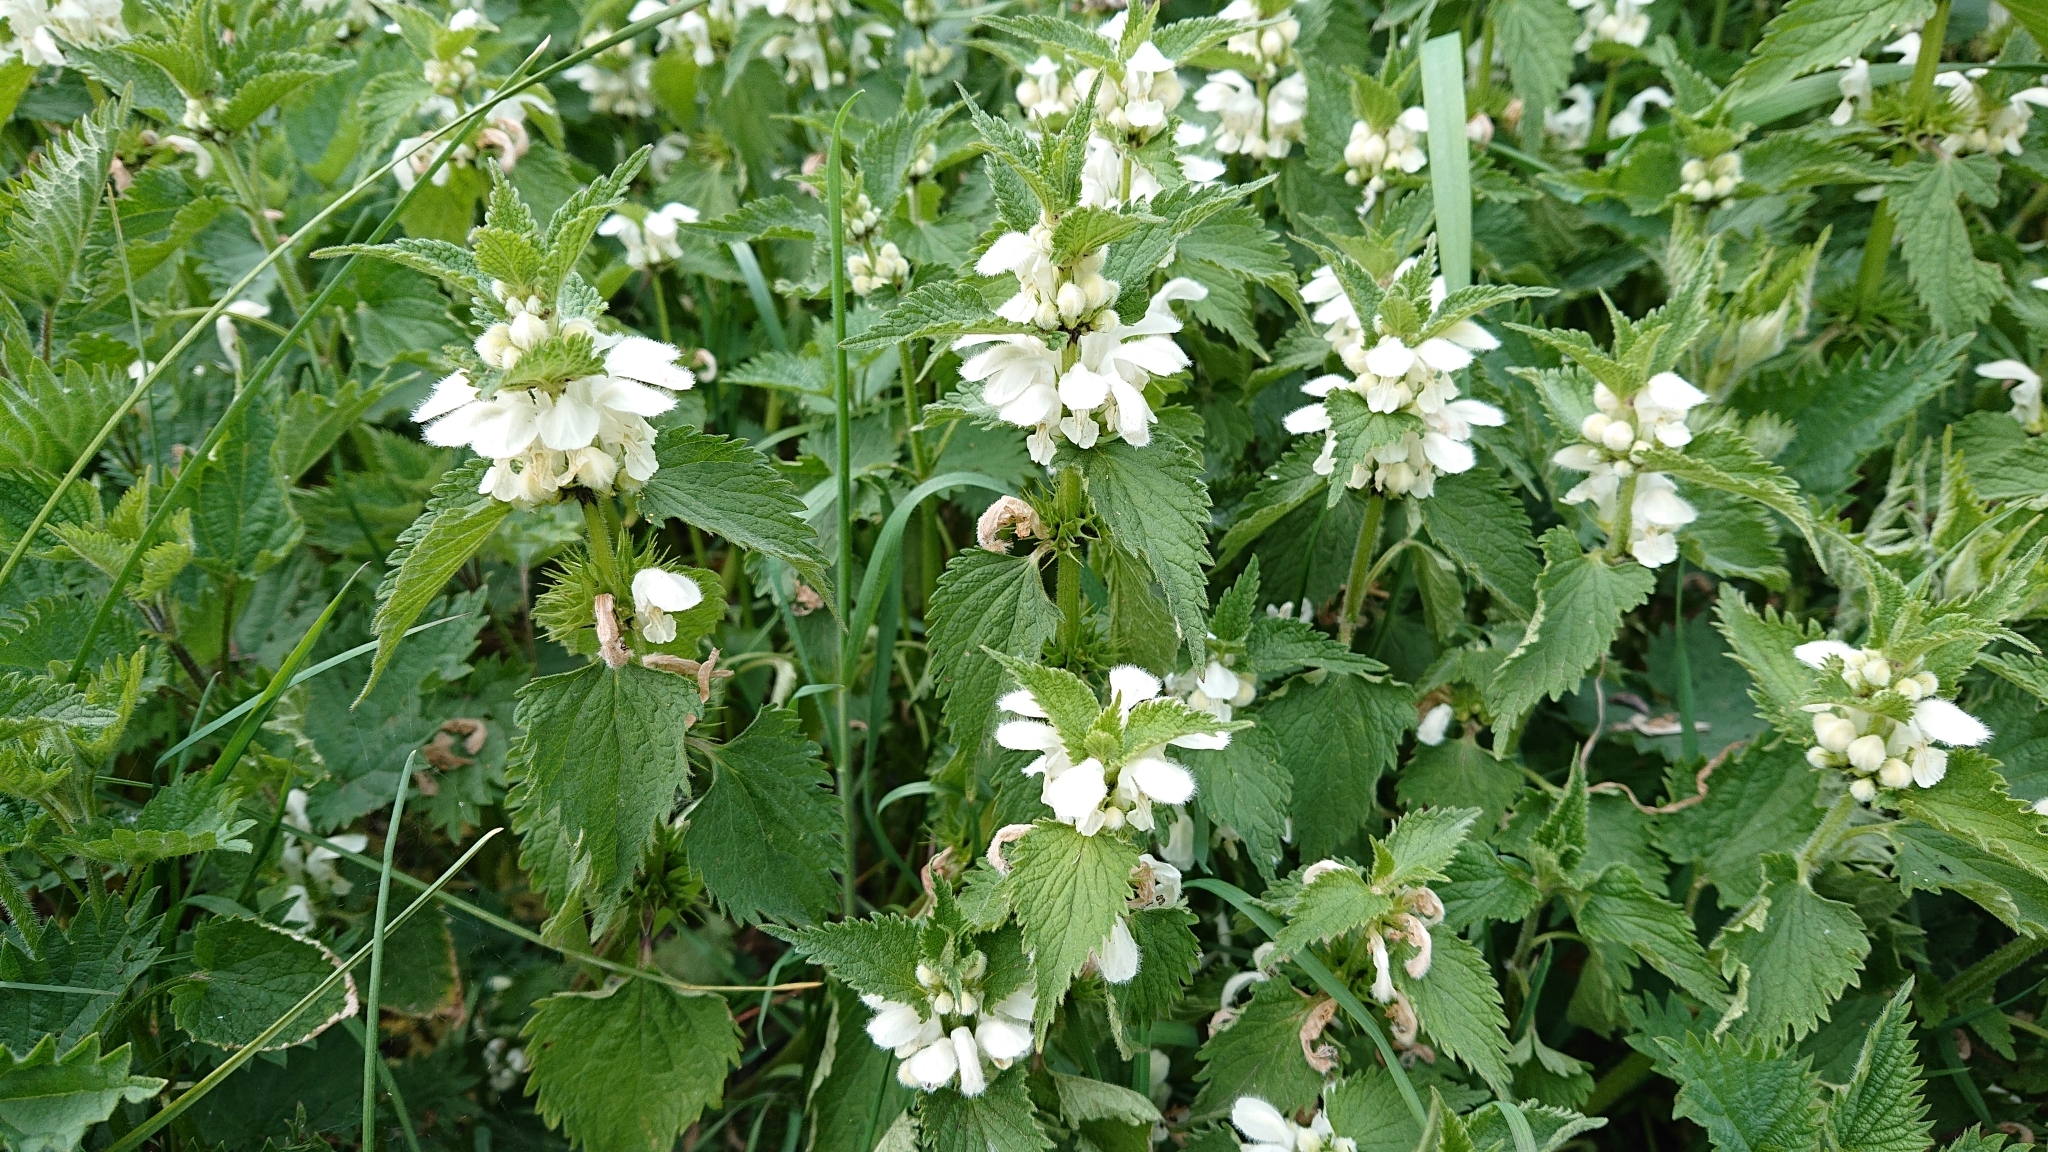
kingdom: Plantae
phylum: Tracheophyta
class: Magnoliopsida
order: Lamiales
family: Lamiaceae
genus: Lamium
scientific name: Lamium album
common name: White dead-nettle
